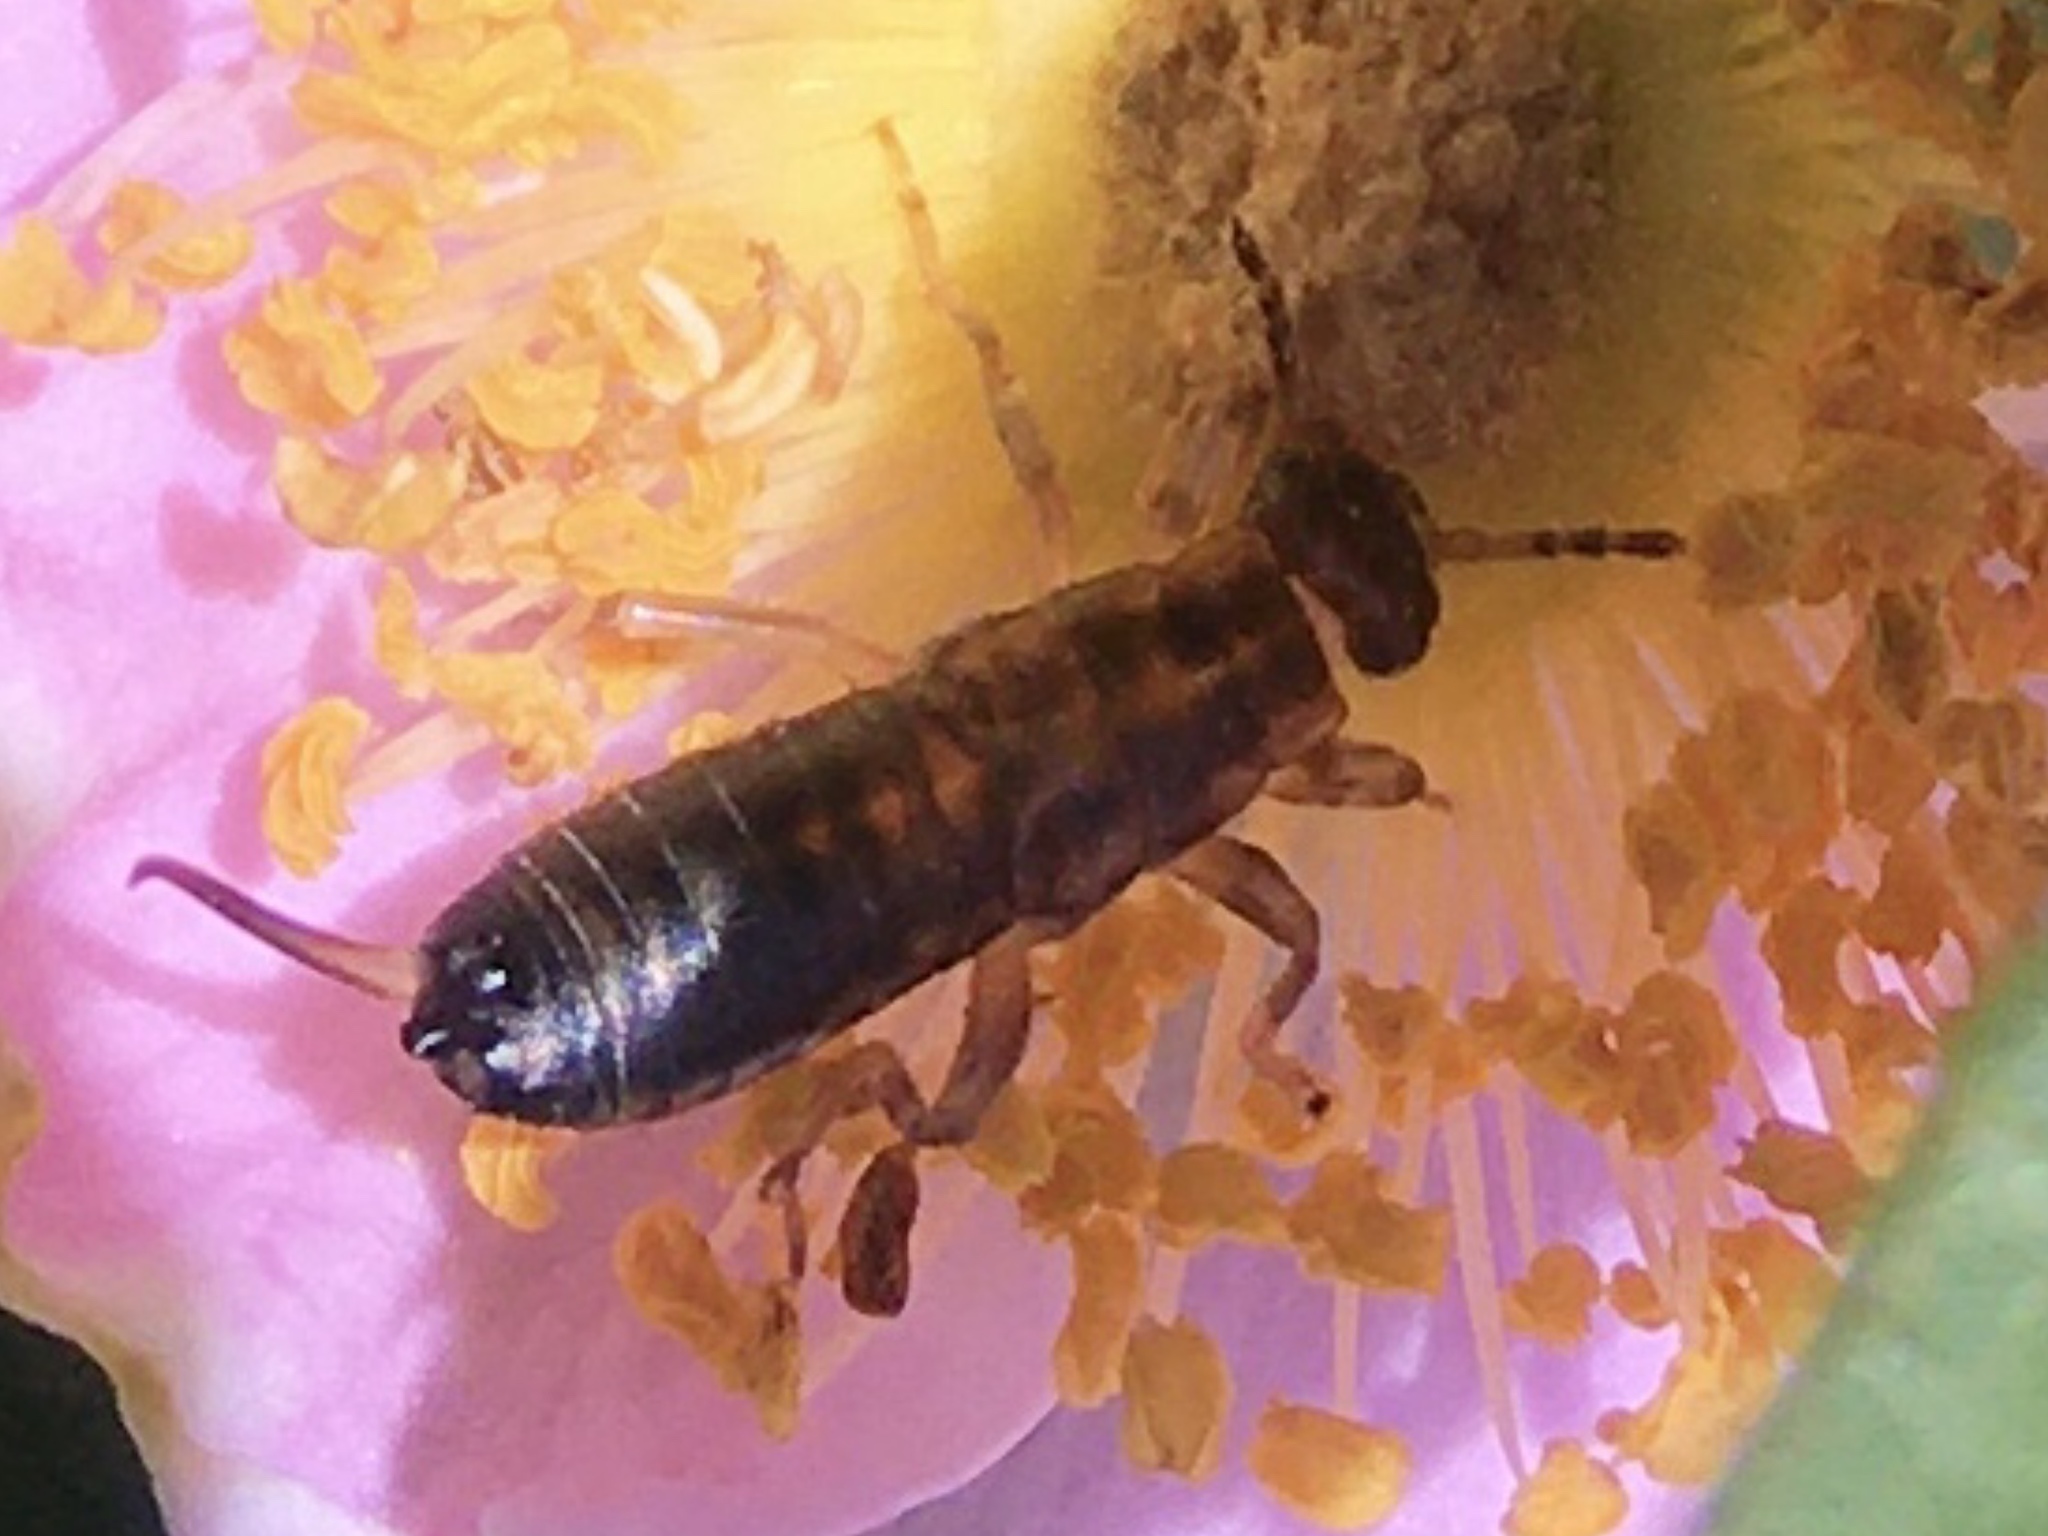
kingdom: Animalia
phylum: Arthropoda
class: Insecta
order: Dermaptera
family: Forficulidae
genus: Forficula
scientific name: Forficula
